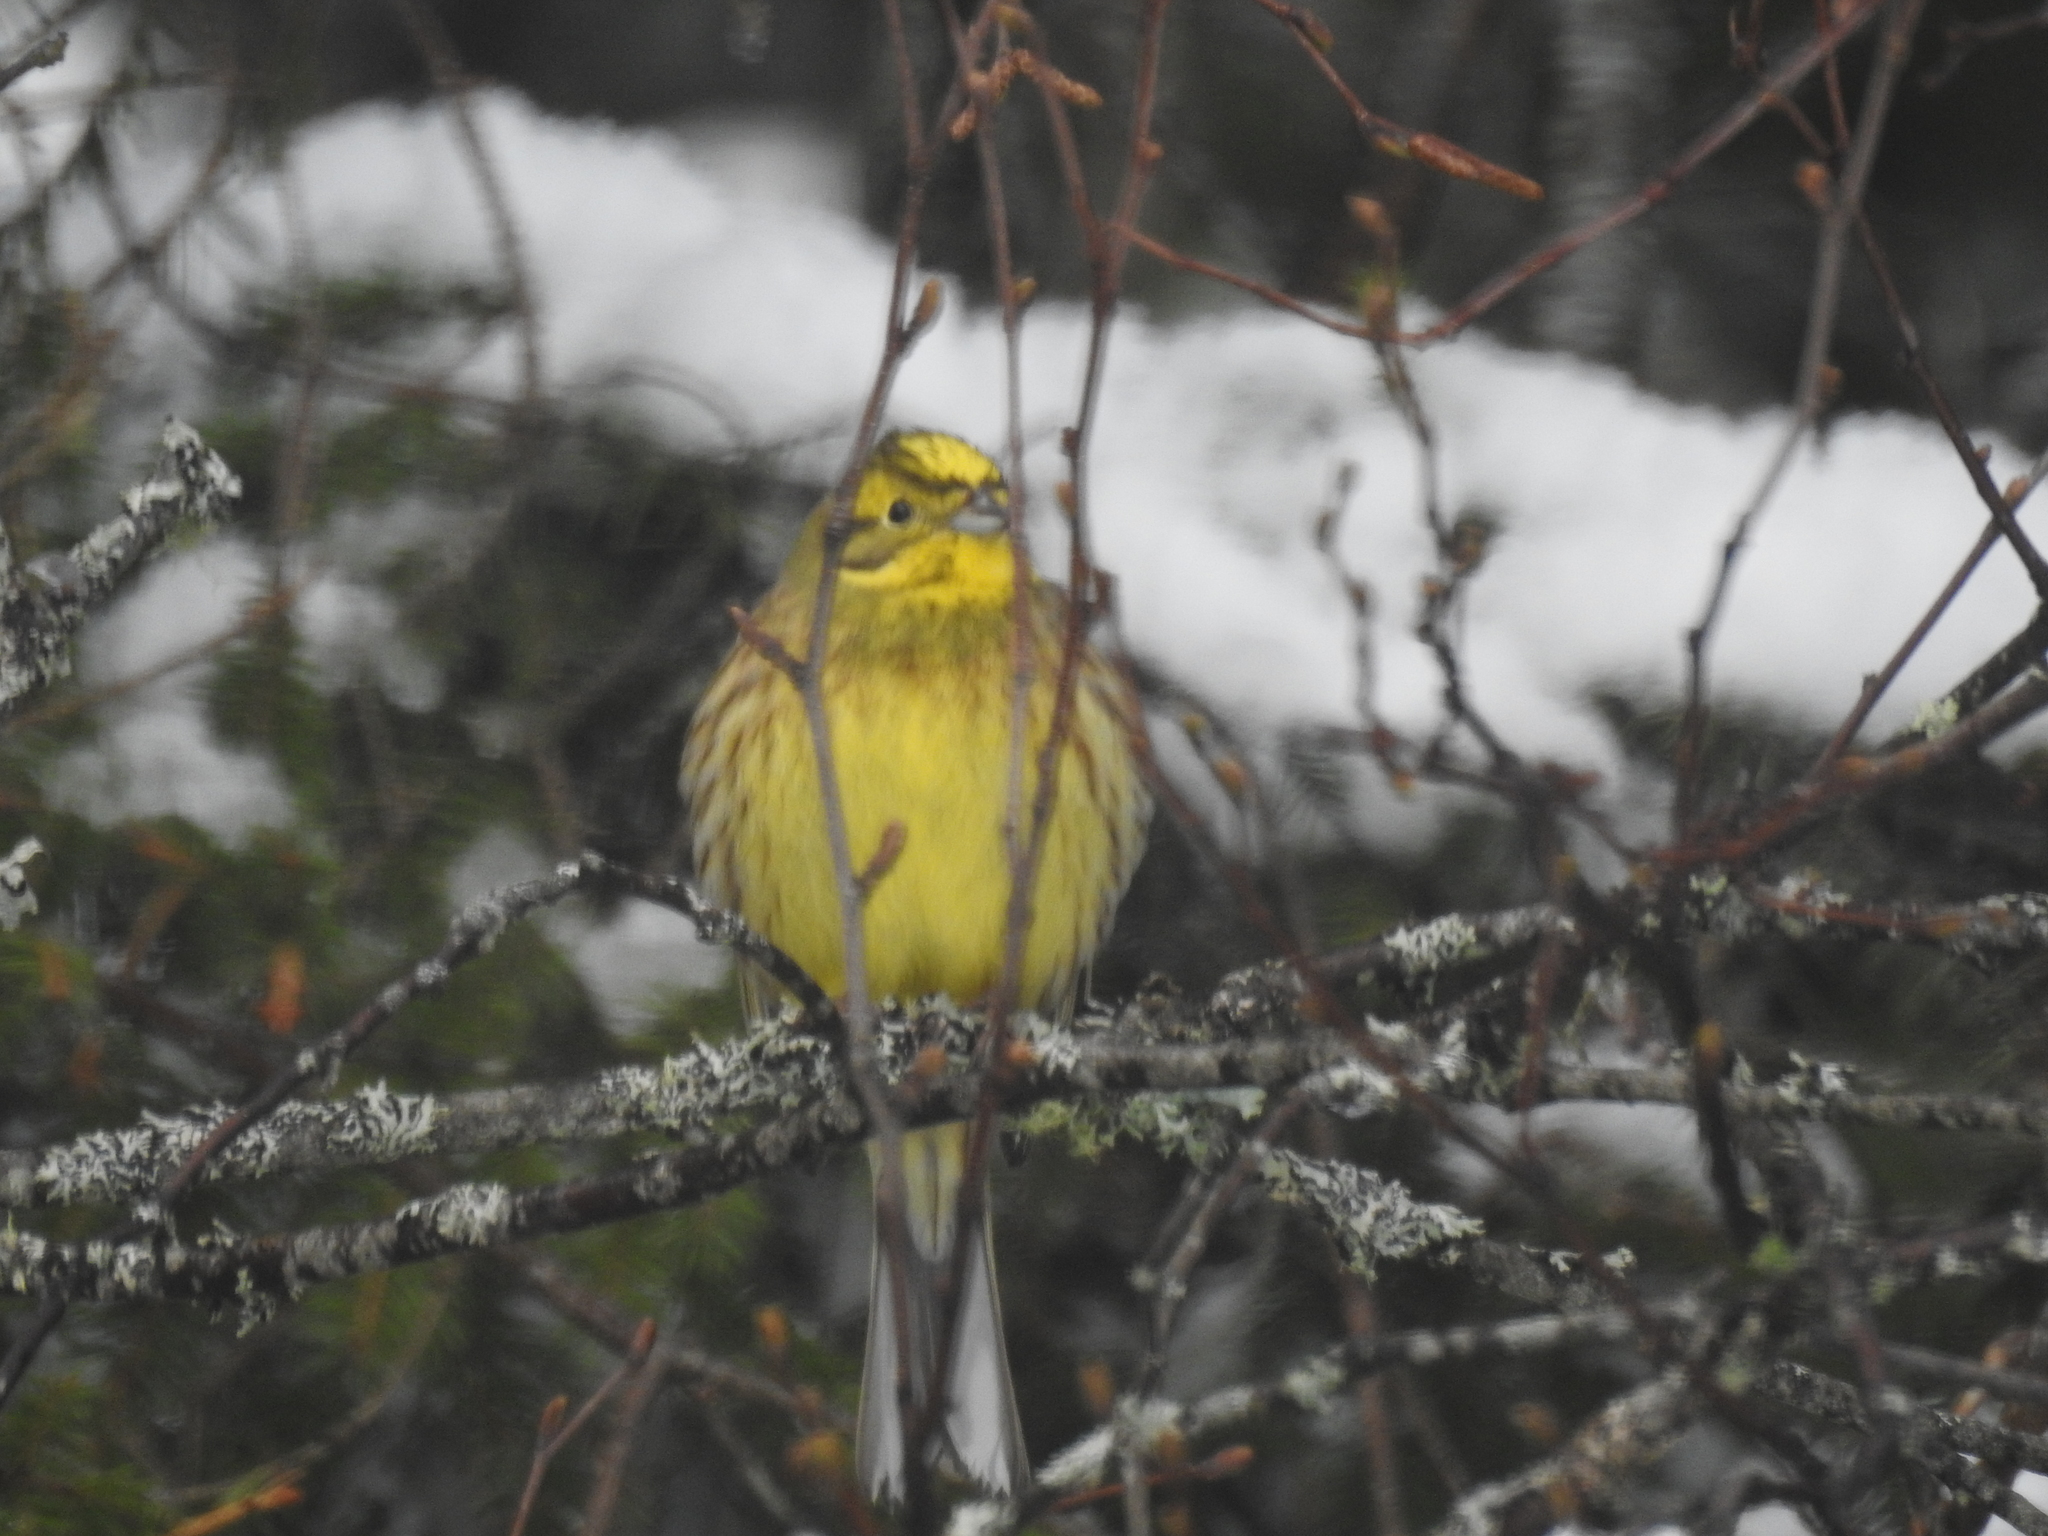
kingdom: Animalia
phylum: Chordata
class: Aves
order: Passeriformes
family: Emberizidae
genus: Emberiza
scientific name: Emberiza citrinella
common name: Yellowhammer
